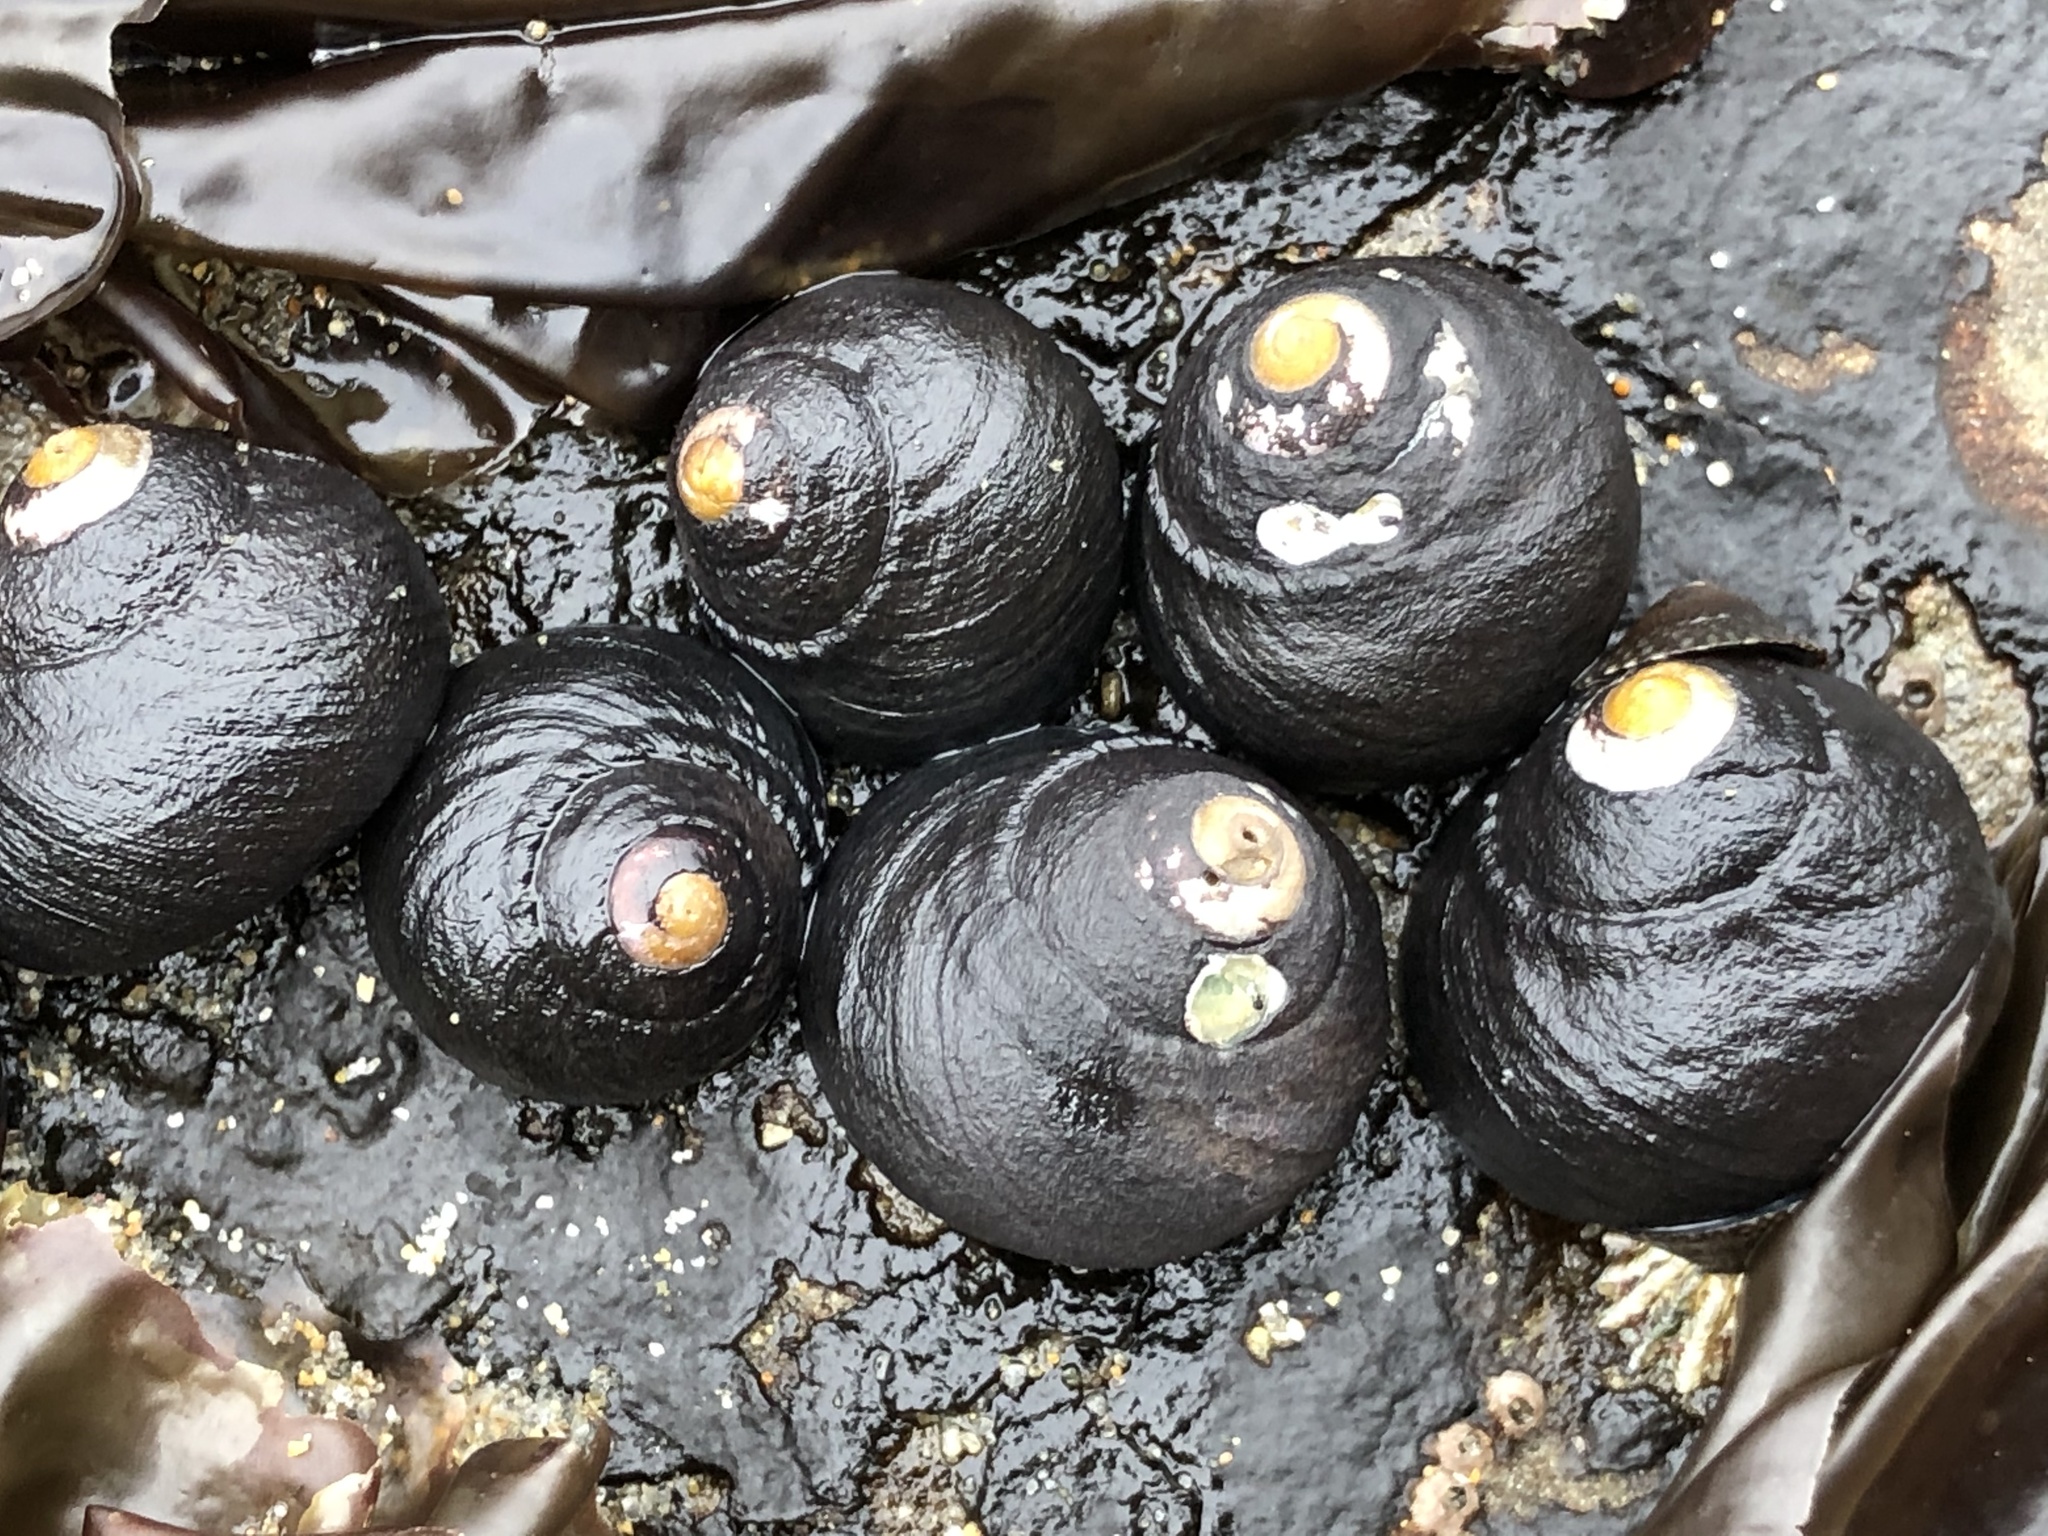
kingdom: Animalia
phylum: Mollusca
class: Gastropoda
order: Trochida
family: Tegulidae
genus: Tegula
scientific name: Tegula funebralis
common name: Black tegula
